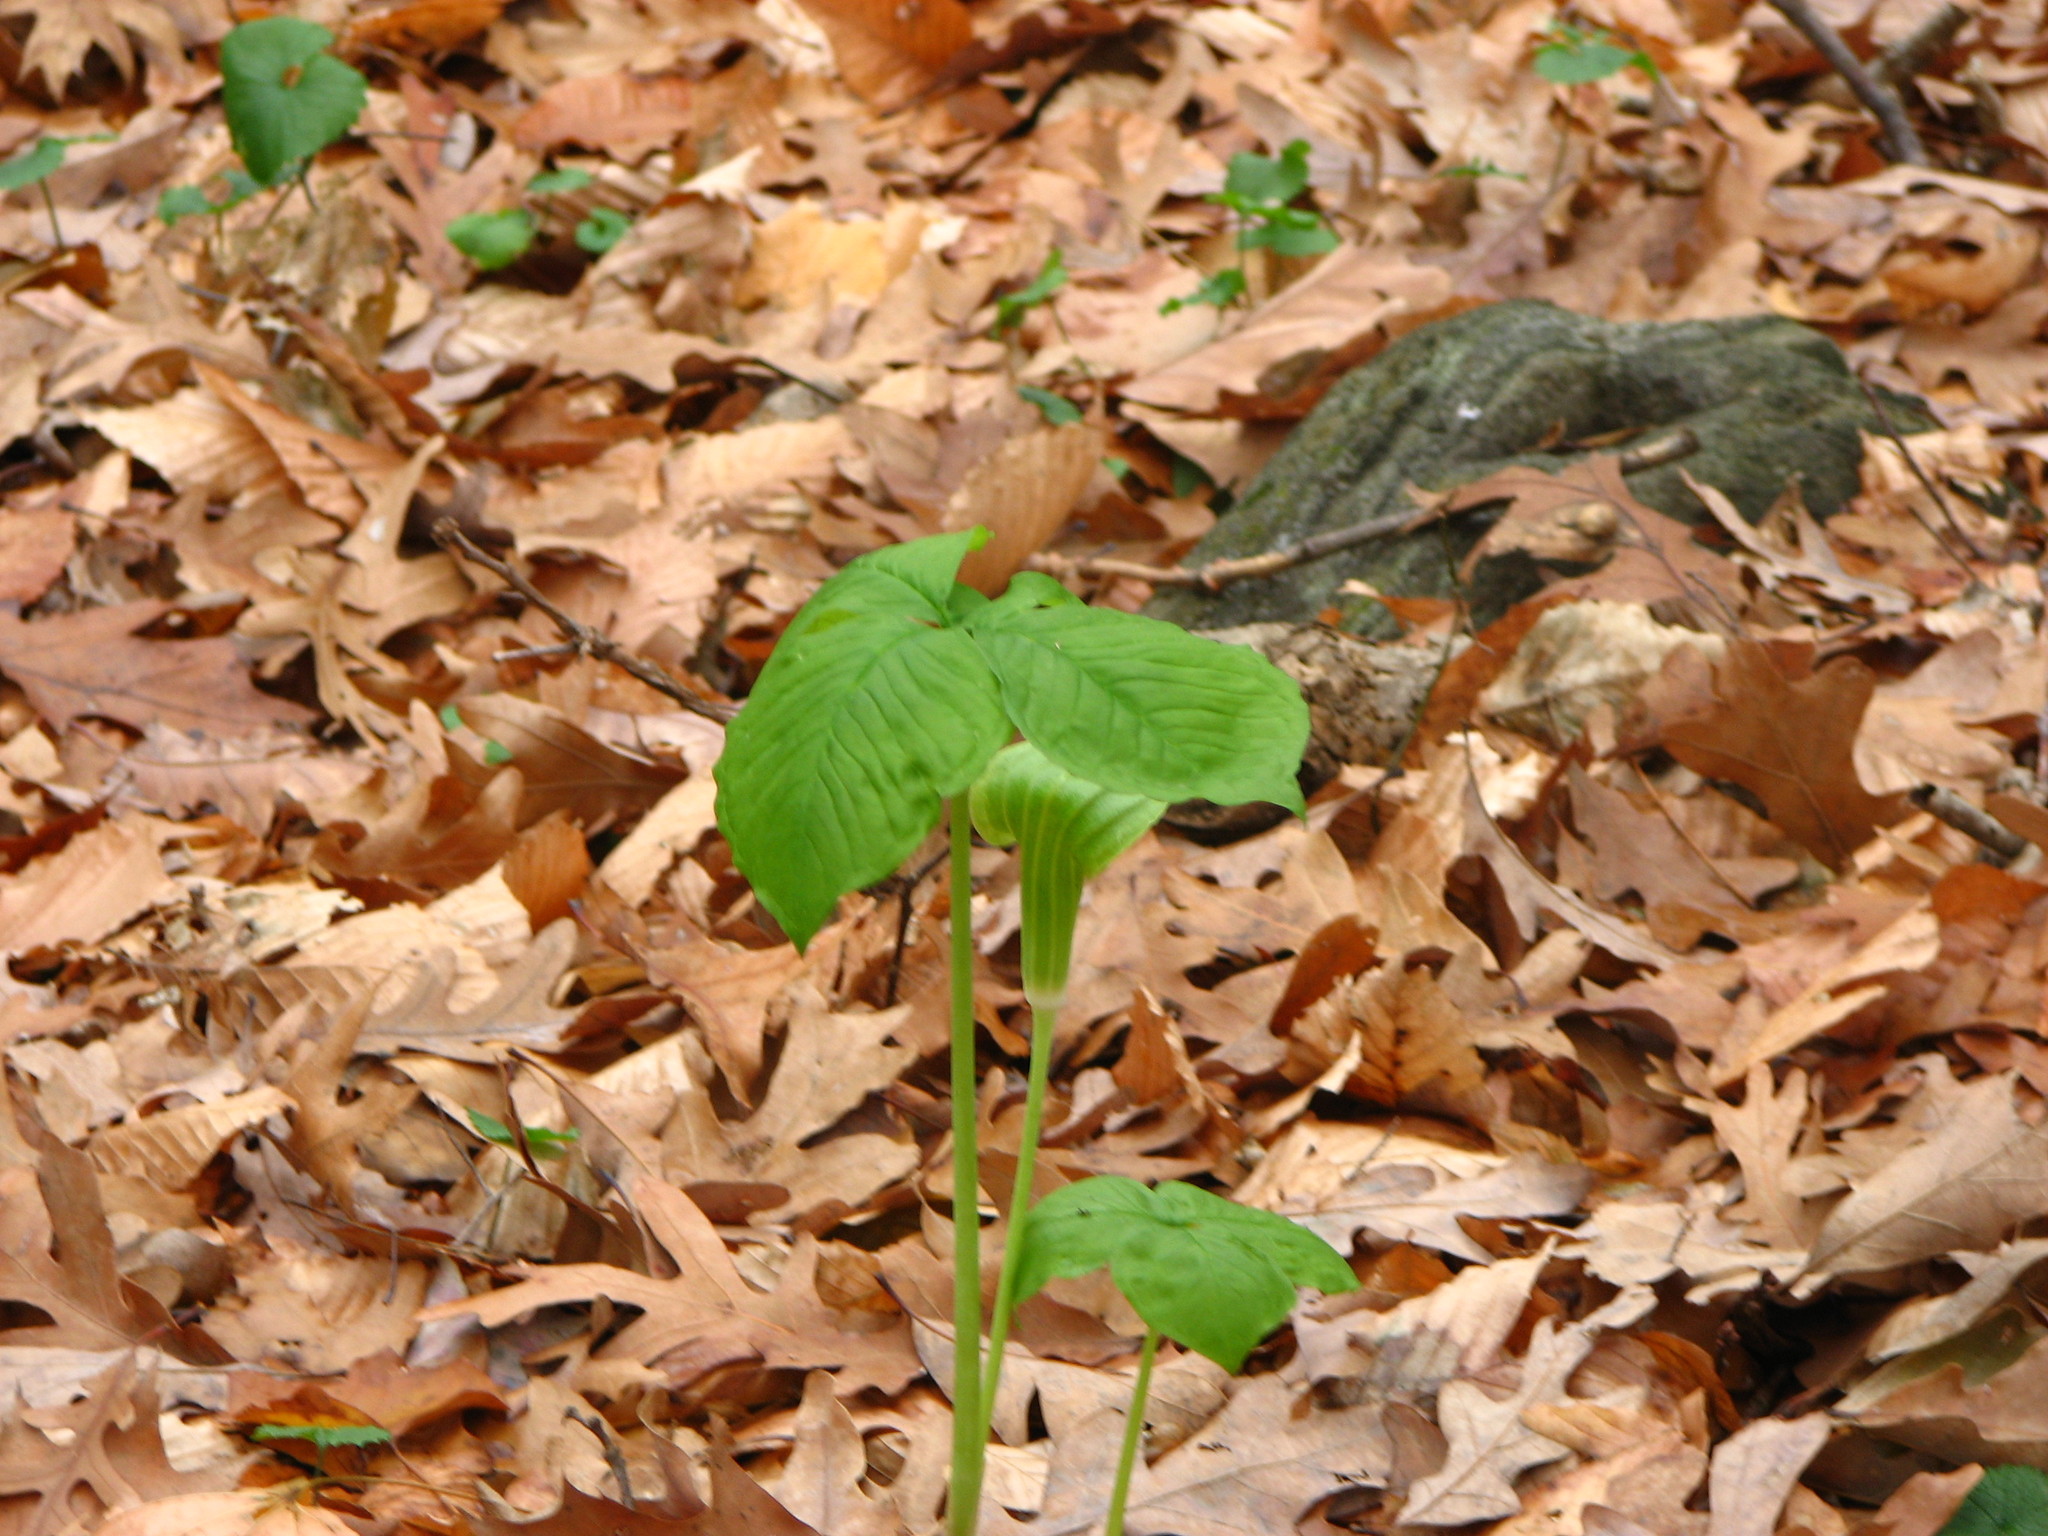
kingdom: Plantae
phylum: Tracheophyta
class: Liliopsida
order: Alismatales
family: Araceae
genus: Arisaema
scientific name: Arisaema triphyllum
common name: Jack-in-the-pulpit
